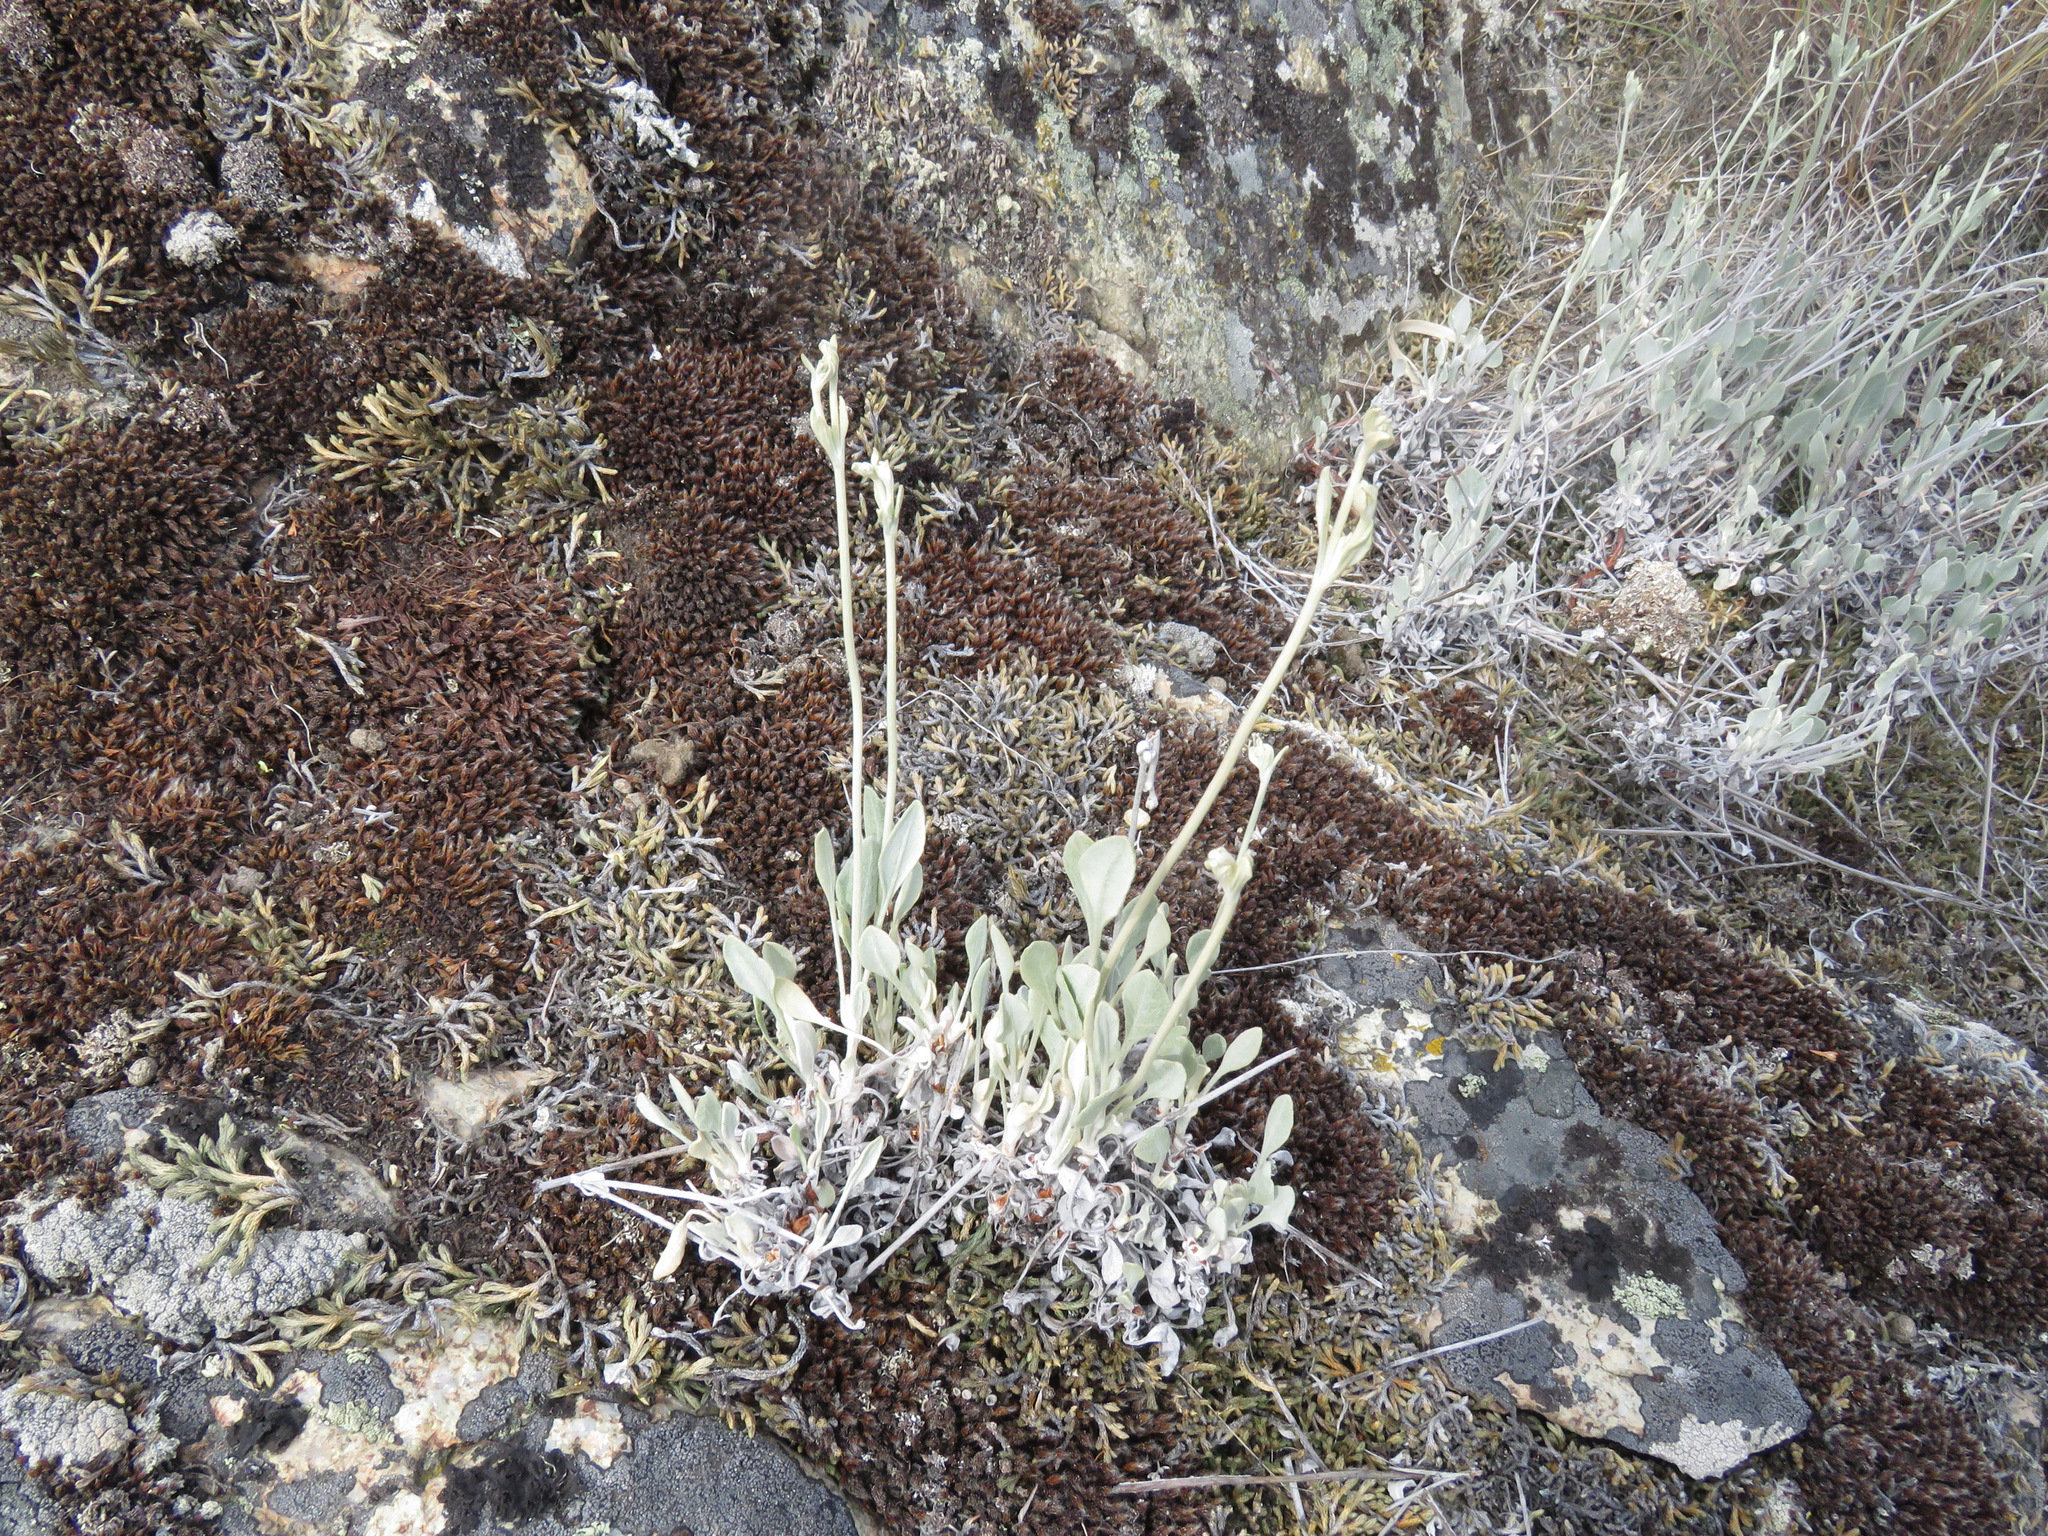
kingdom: Plantae
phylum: Tracheophyta
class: Magnoliopsida
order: Caryophyllales
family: Polygonaceae
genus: Eriogonum
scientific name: Eriogonum niveum
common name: Snow wild buckwheat
